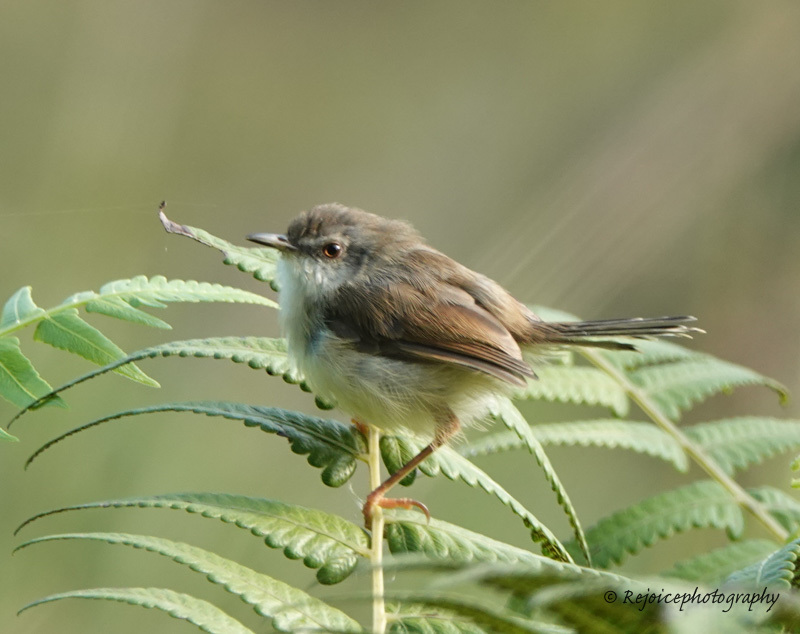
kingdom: Animalia
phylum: Chordata
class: Aves
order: Passeriformes
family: Cisticolidae
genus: Prinia
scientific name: Prinia inornata
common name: Plain prinia
